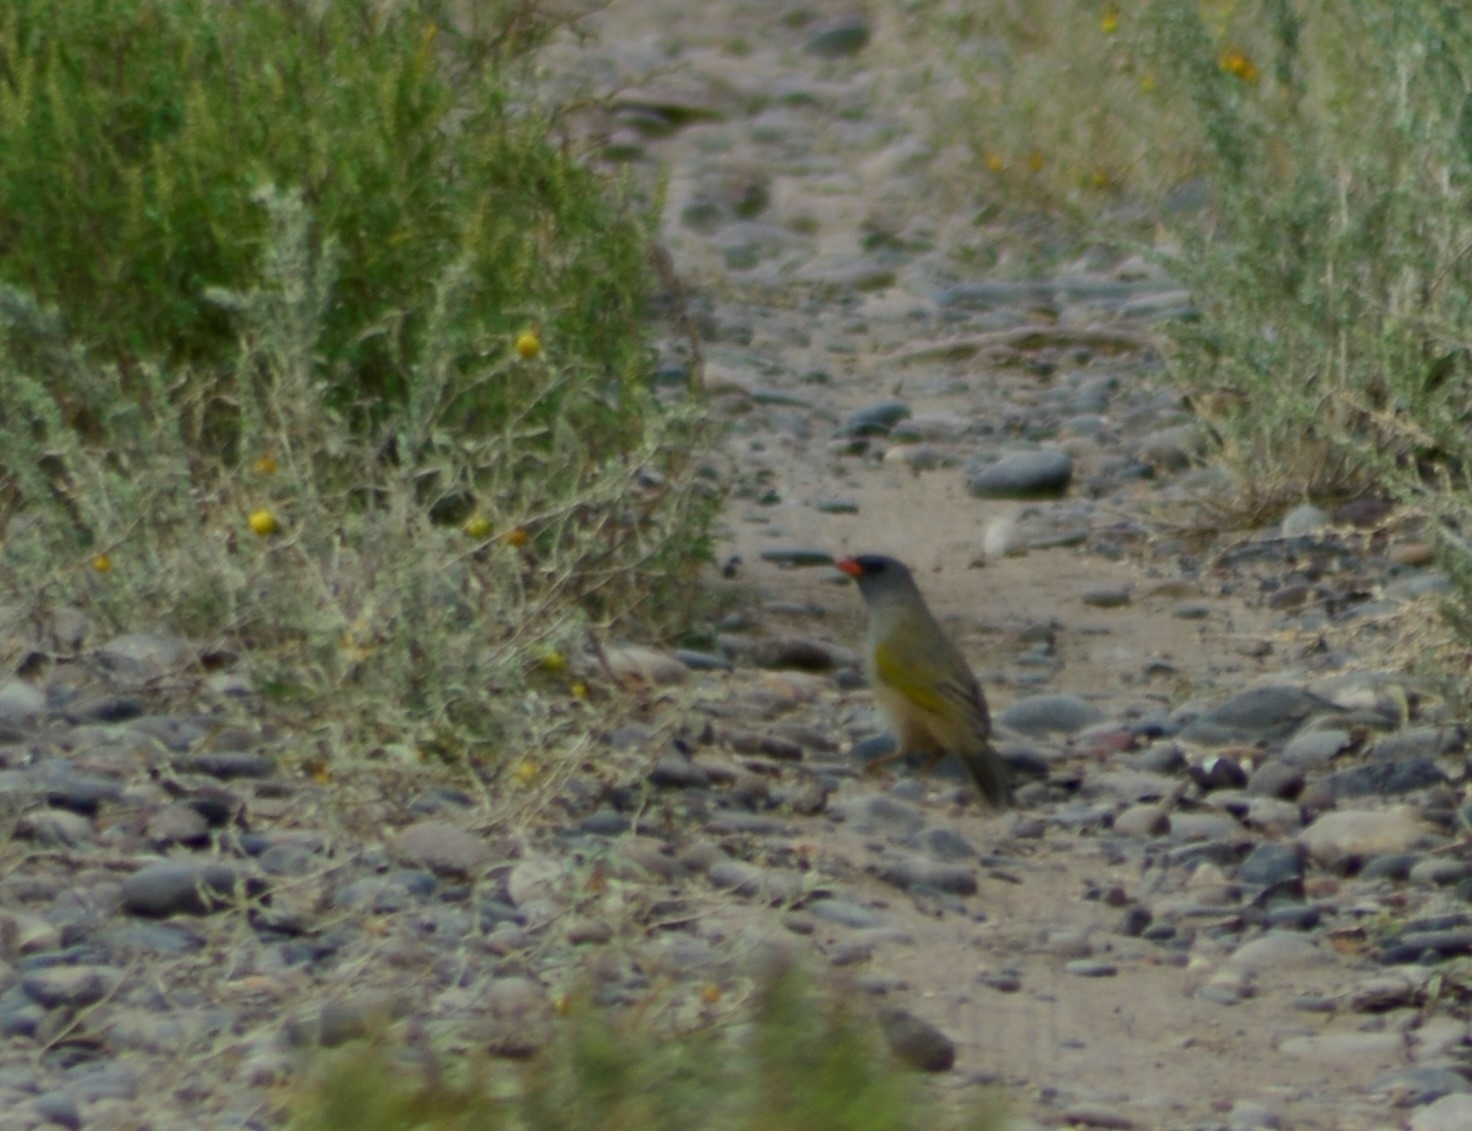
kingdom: Animalia
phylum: Chordata
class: Aves
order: Passeriformes
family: Thraupidae
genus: Embernagra
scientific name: Embernagra platensis
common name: Pampa finch
